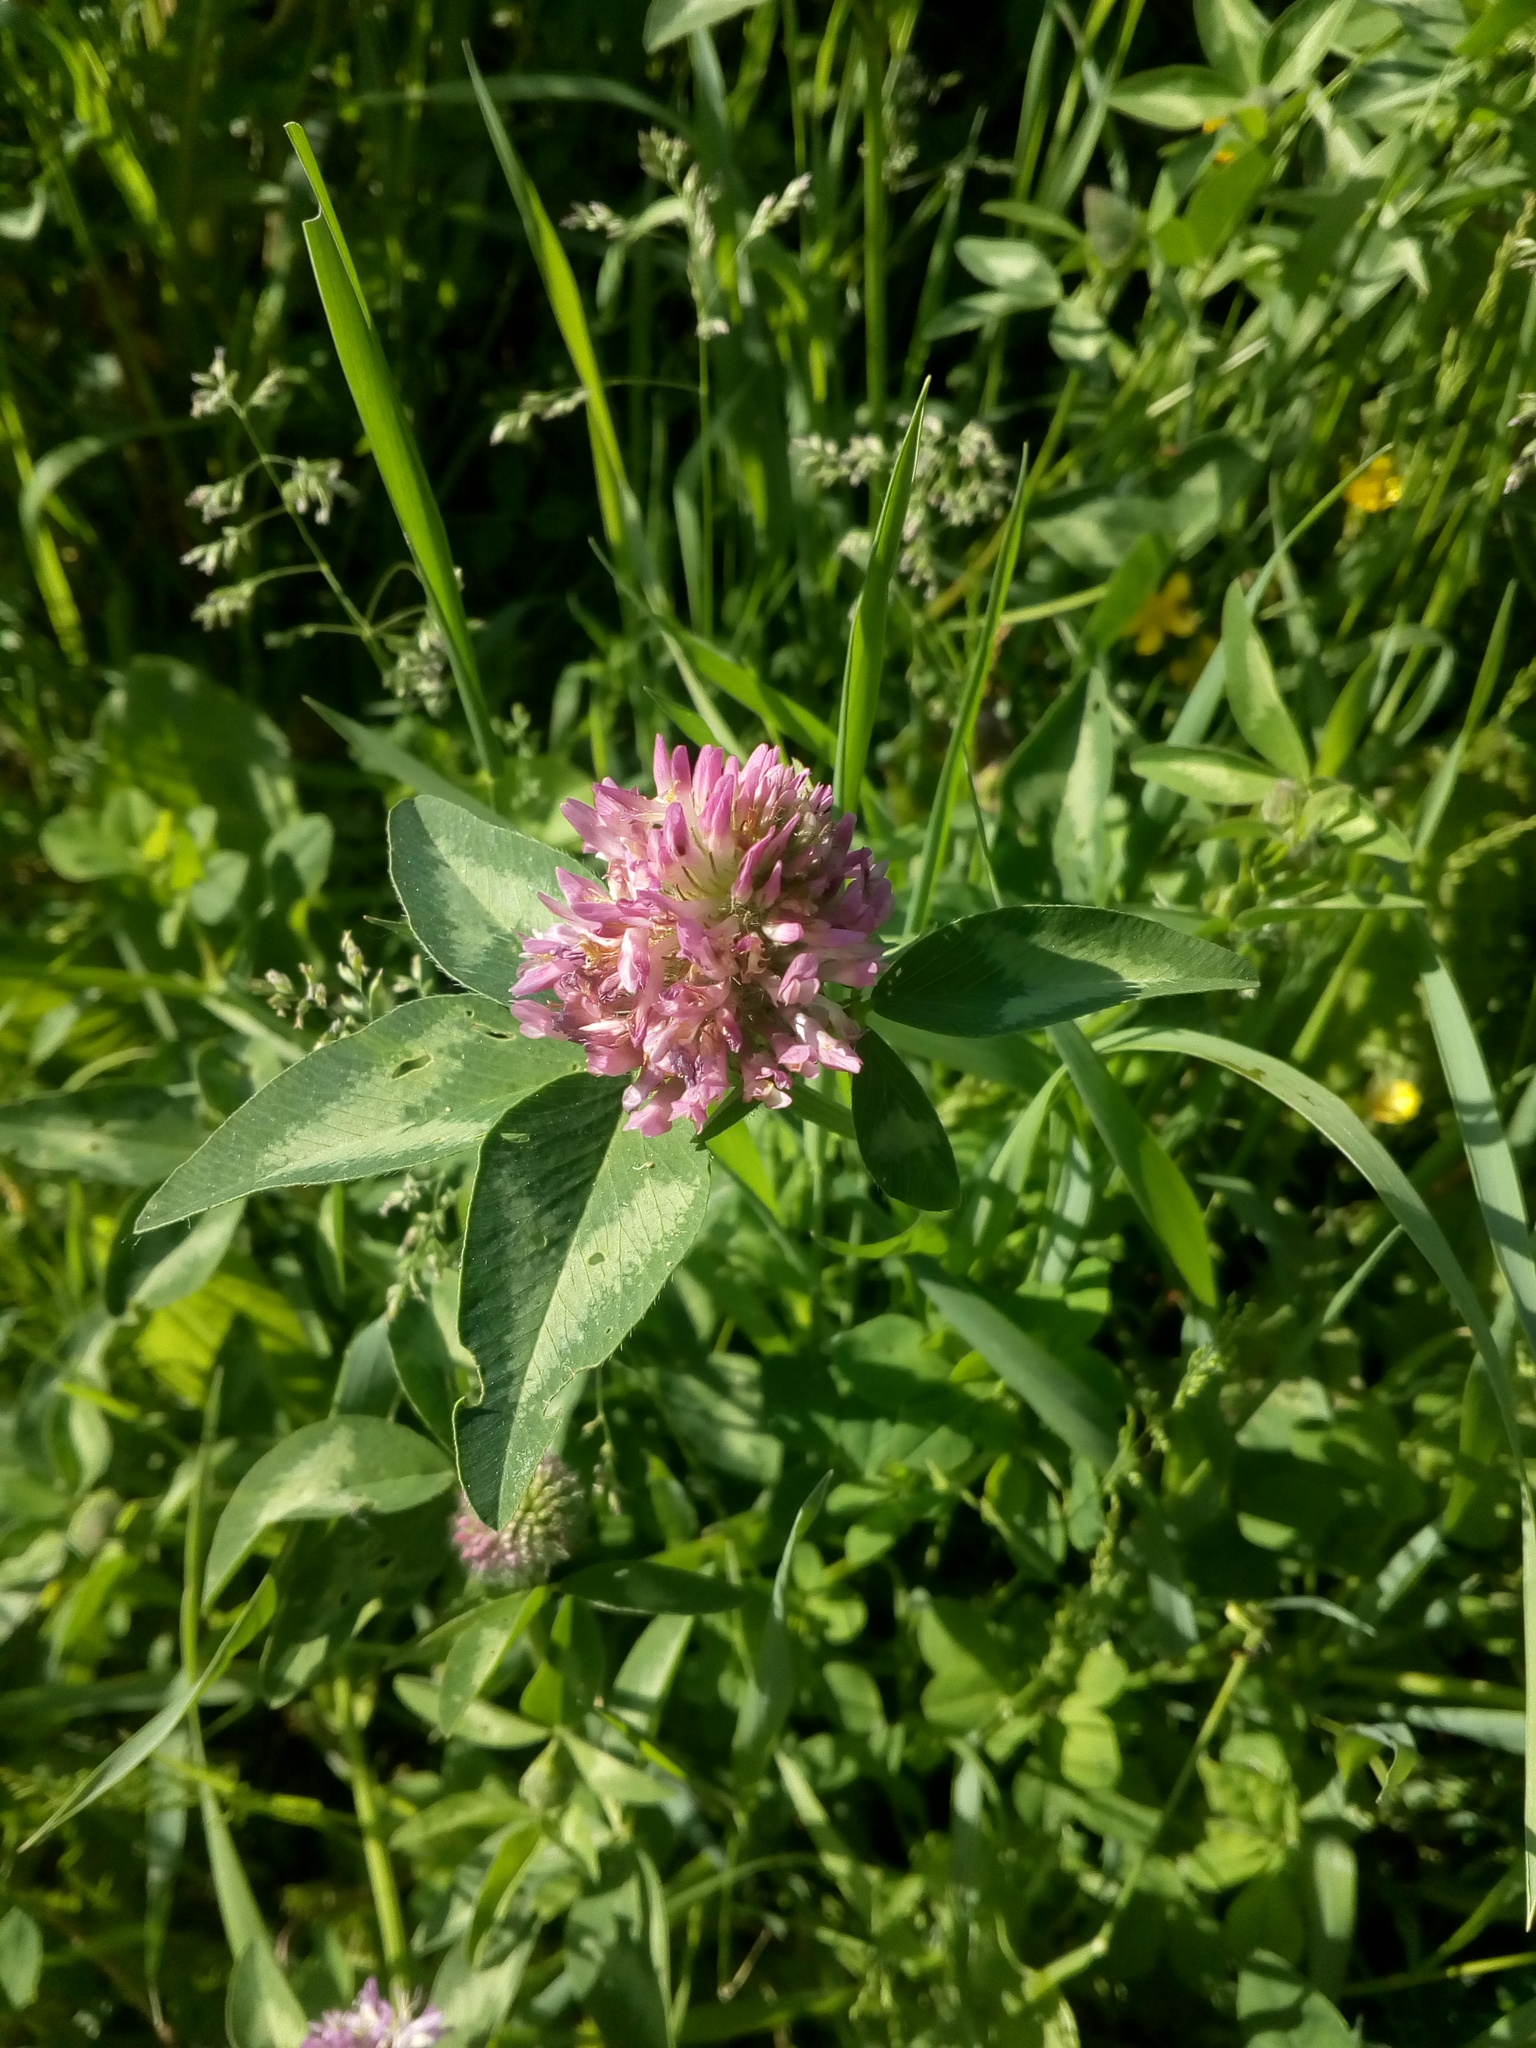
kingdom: Plantae
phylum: Tracheophyta
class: Magnoliopsida
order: Fabales
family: Fabaceae
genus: Trifolium
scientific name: Trifolium pratense
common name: Red clover
